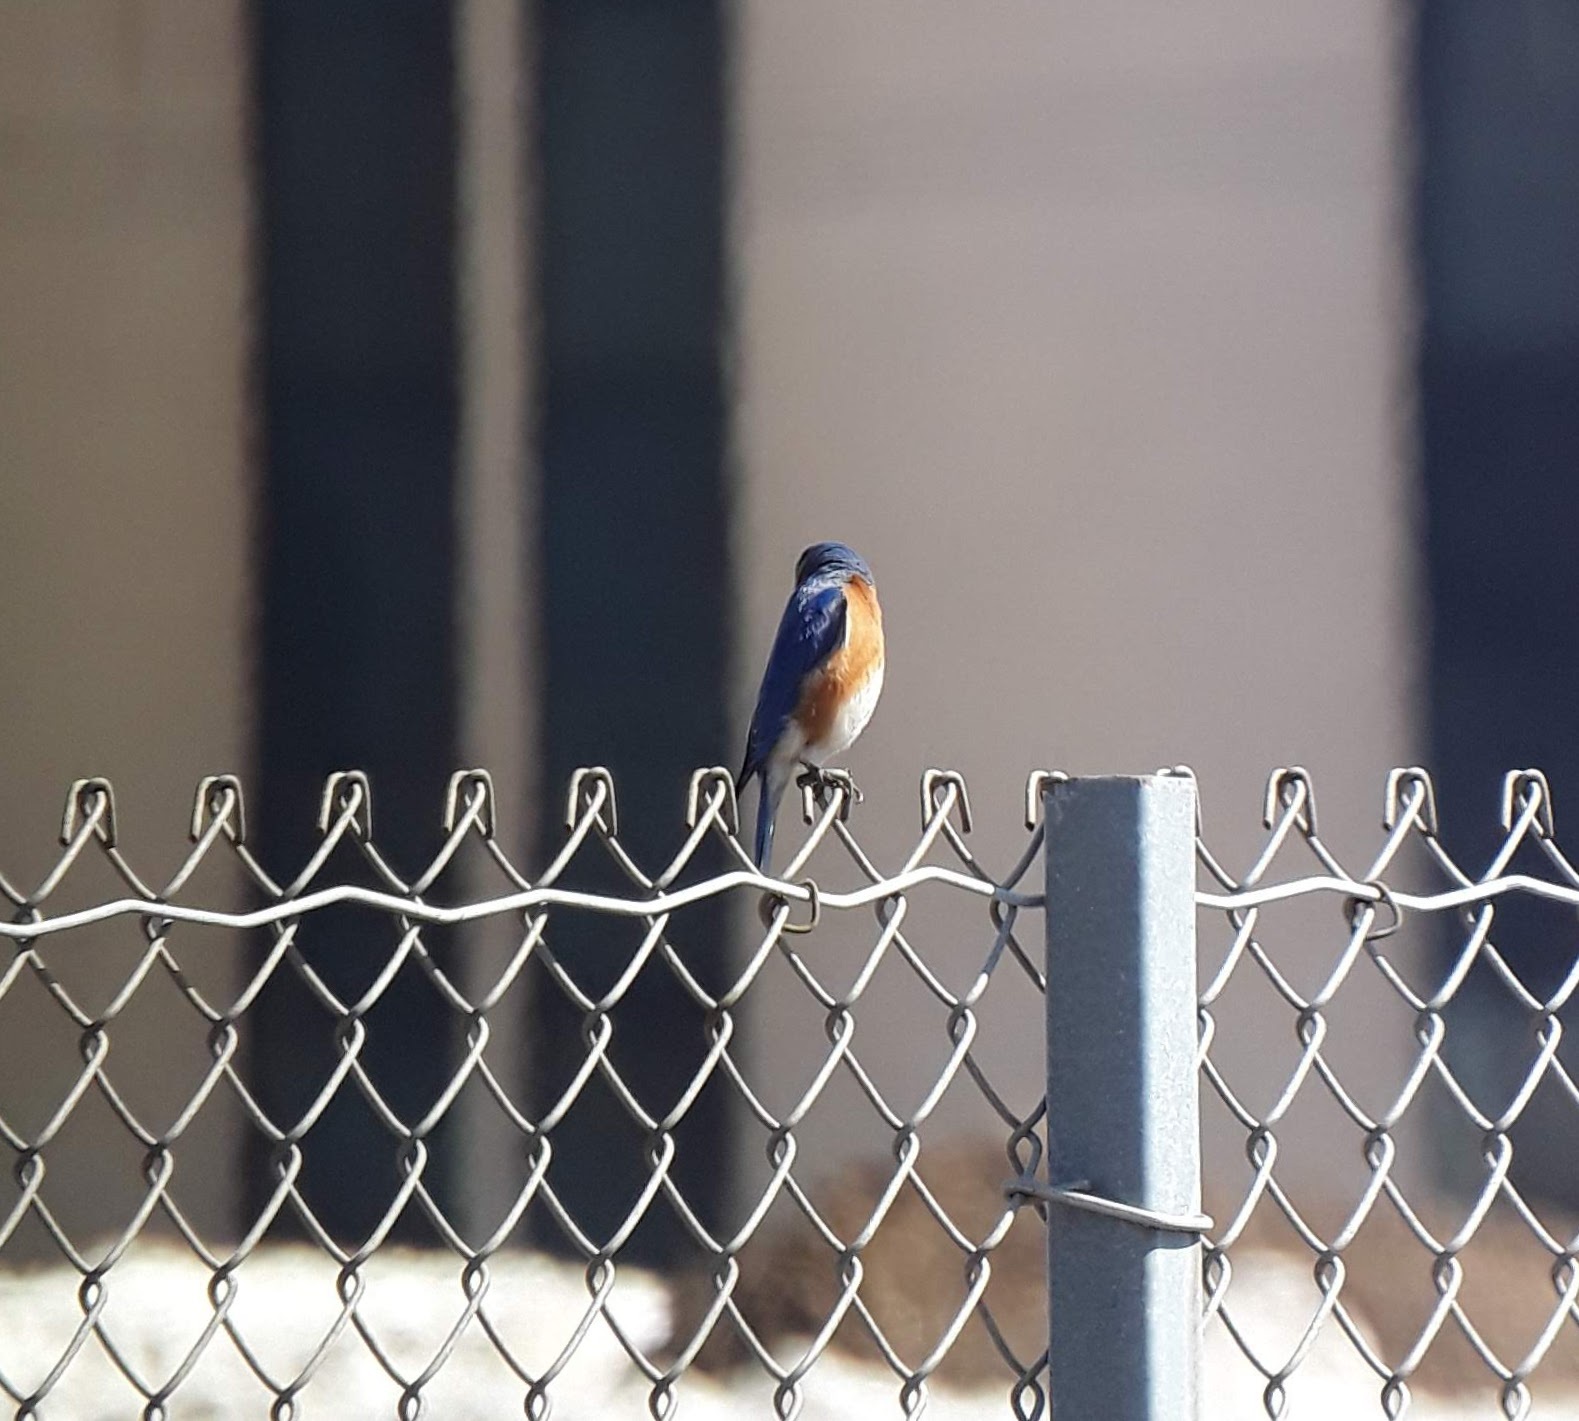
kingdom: Animalia
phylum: Chordata
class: Aves
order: Passeriformes
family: Turdidae
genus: Sialia
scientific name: Sialia sialis
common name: Eastern bluebird
